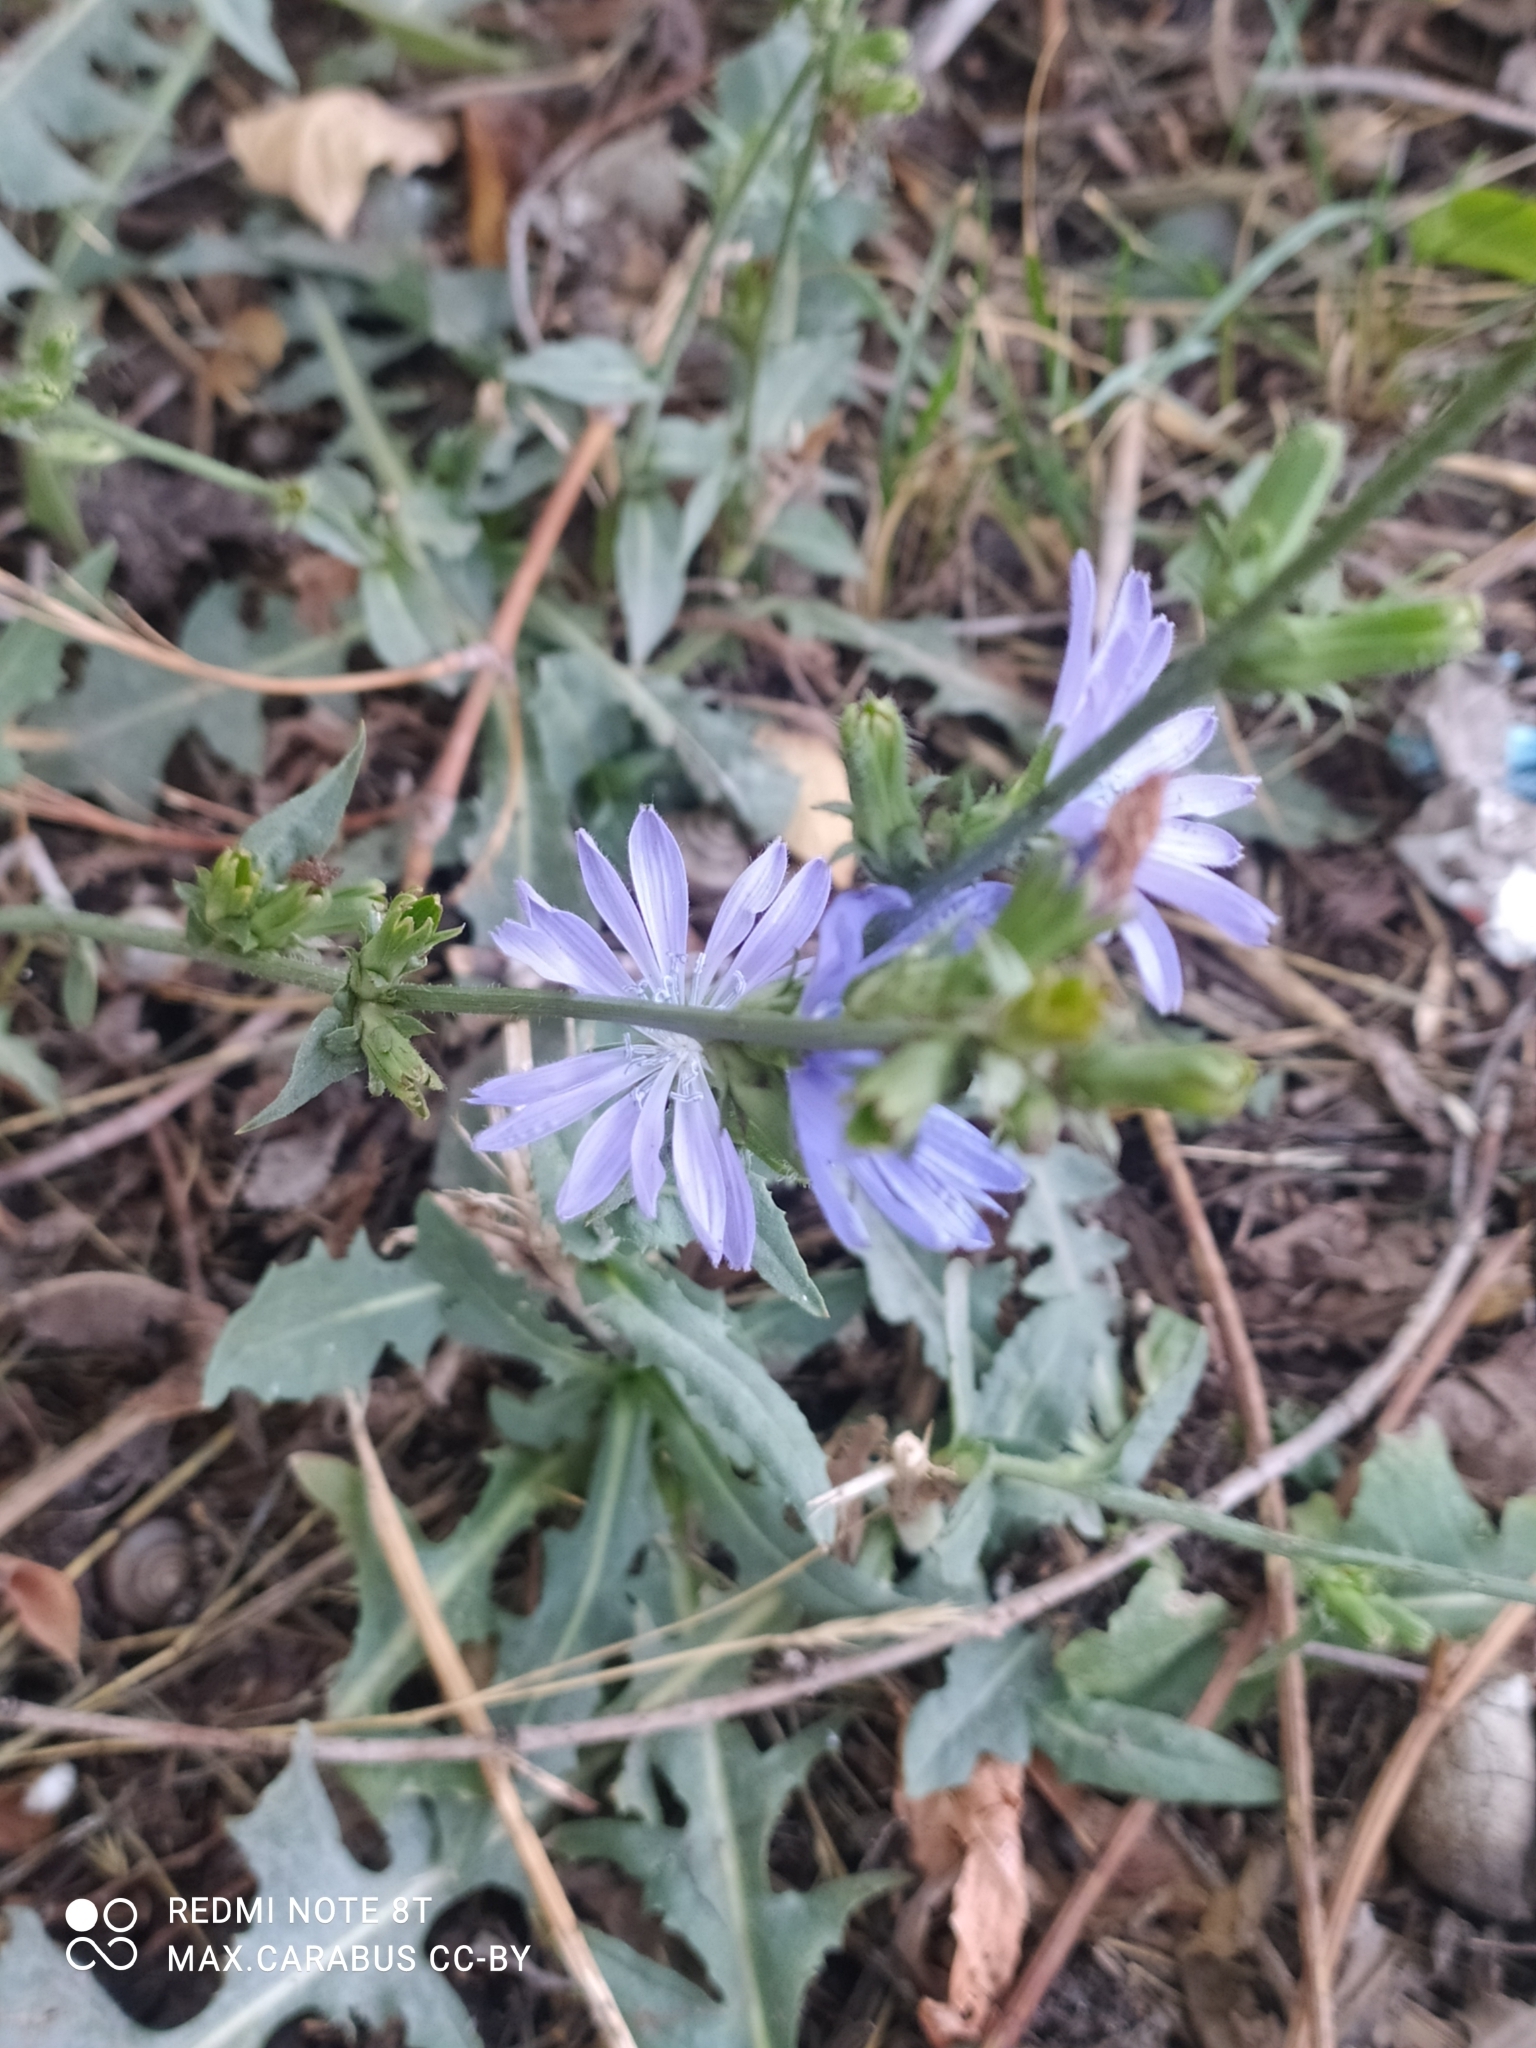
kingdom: Plantae
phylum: Tracheophyta
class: Magnoliopsida
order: Asterales
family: Asteraceae
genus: Cichorium
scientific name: Cichorium intybus
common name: Chicory
